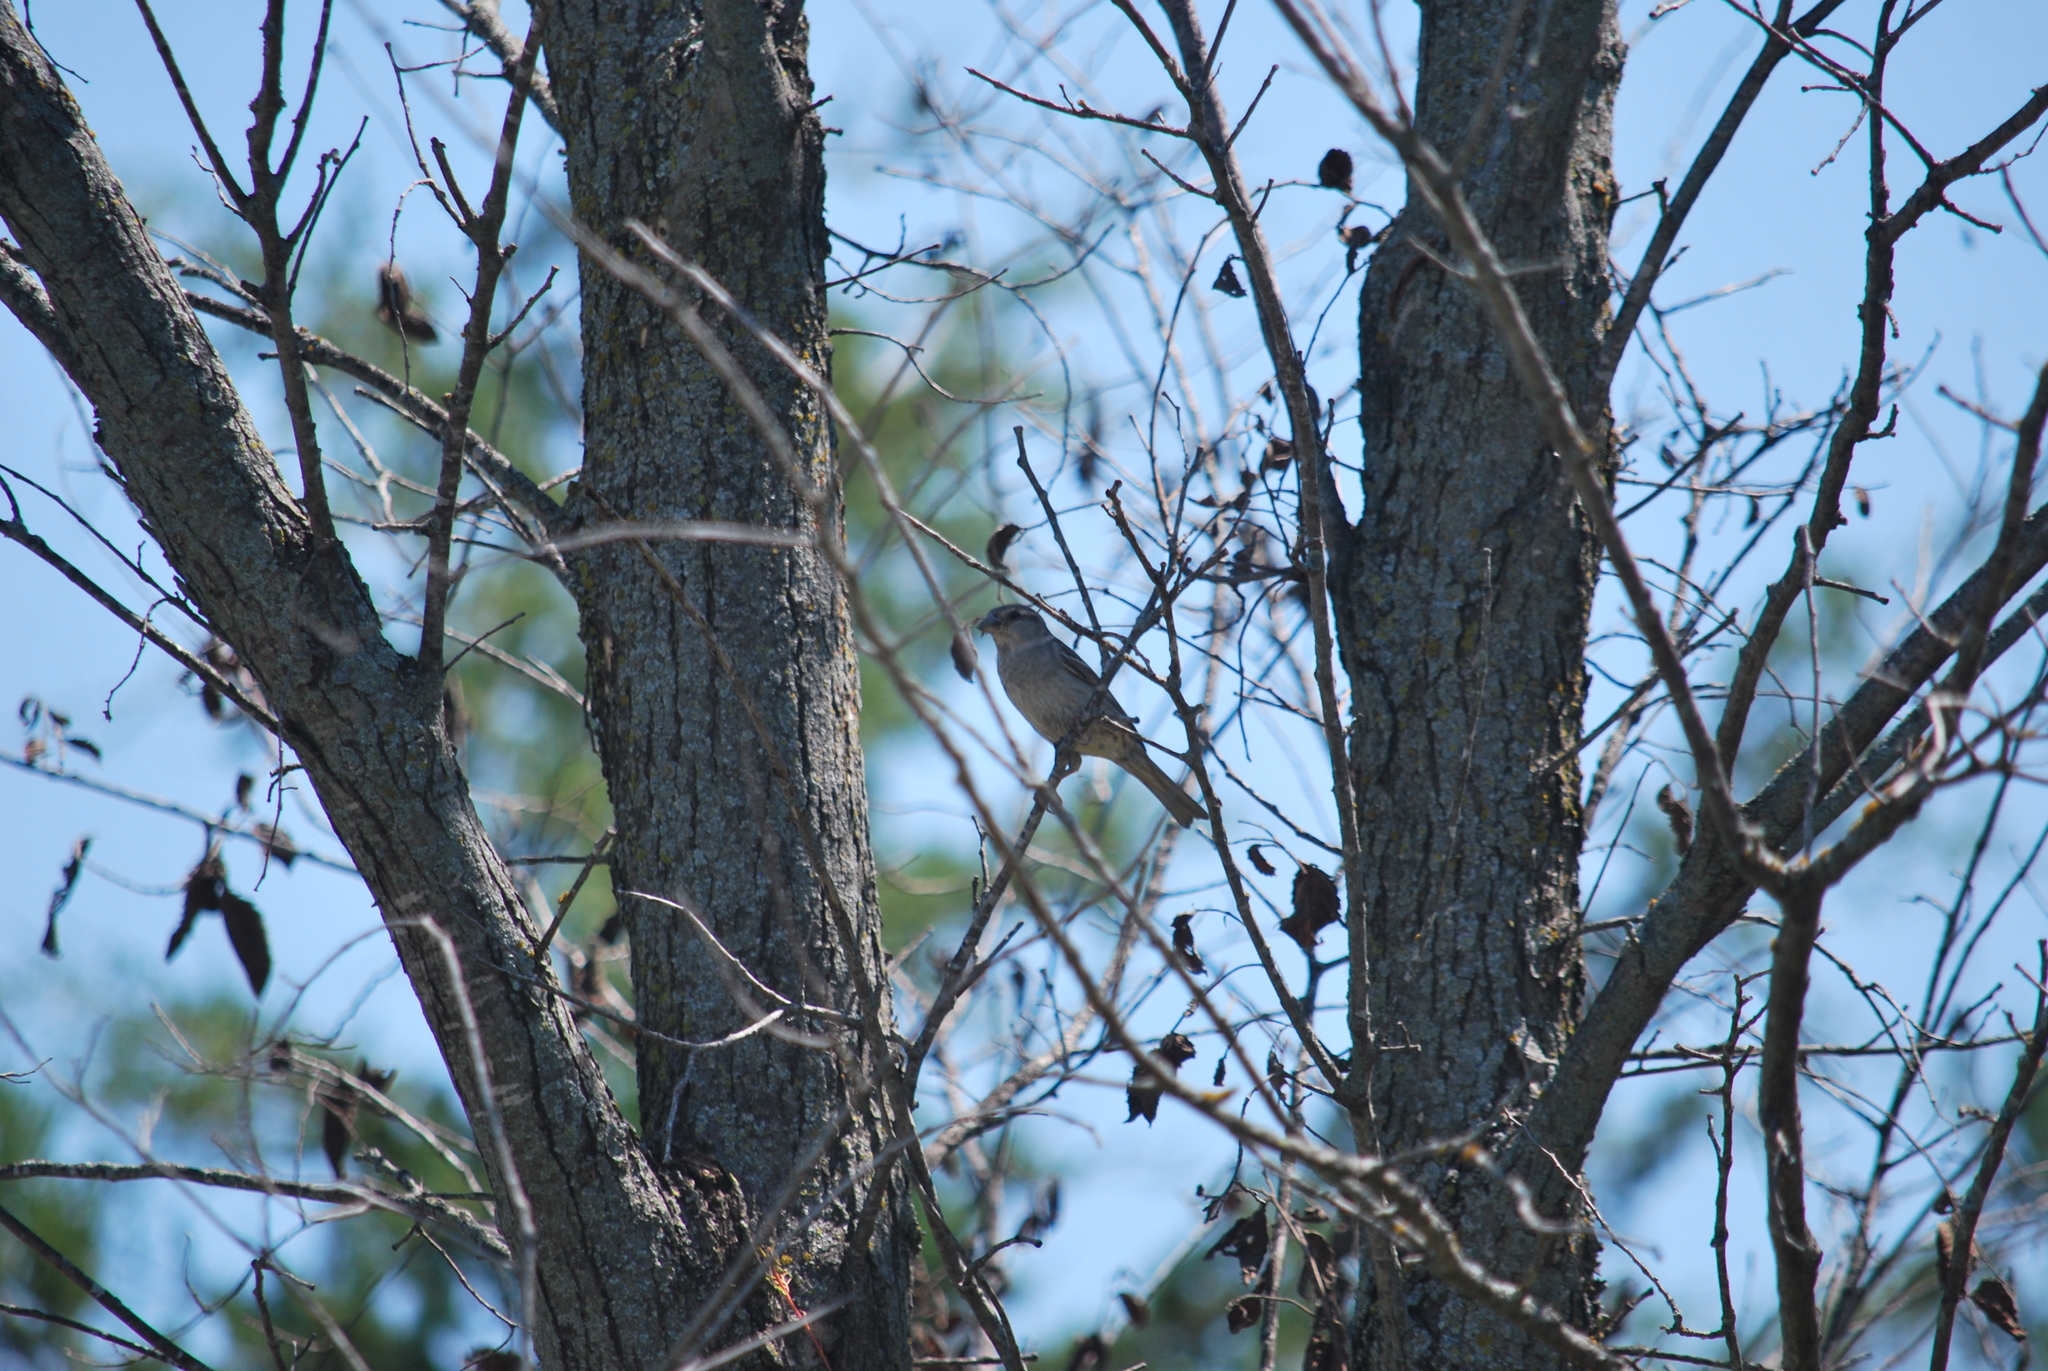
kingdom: Animalia
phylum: Chordata
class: Aves
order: Passeriformes
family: Passeridae
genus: Passer
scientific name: Passer domesticus
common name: House sparrow
